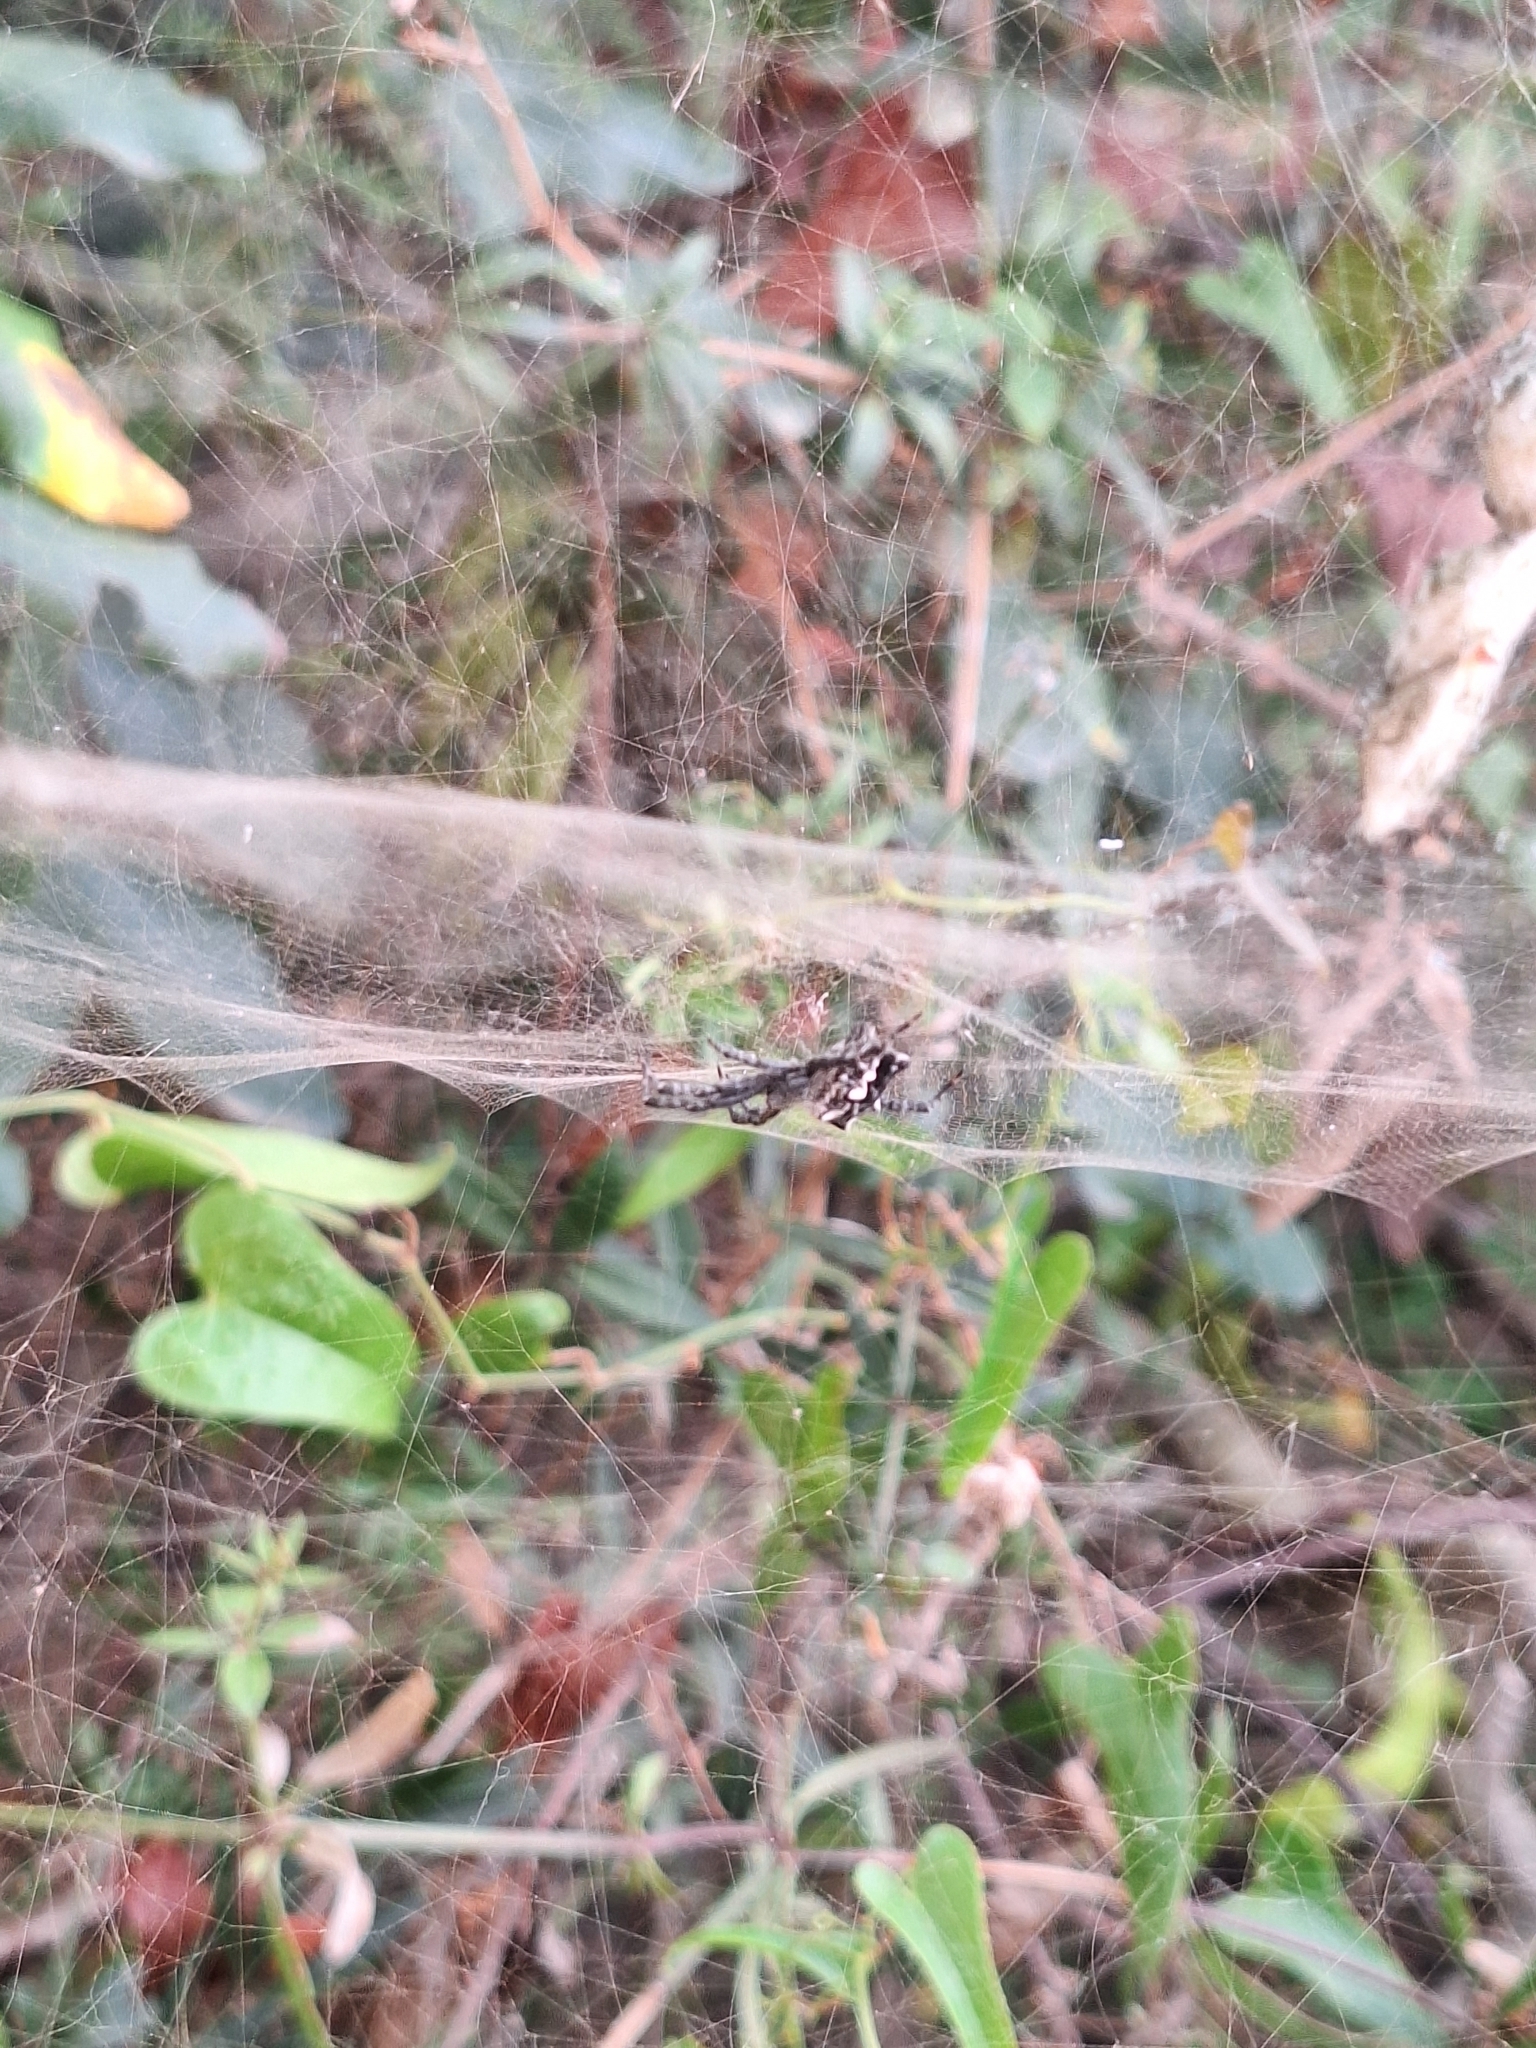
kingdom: Animalia
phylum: Arthropoda
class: Arachnida
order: Araneae
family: Araneidae
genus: Cyrtophora
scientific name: Cyrtophora citricola
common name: Orb weavers
